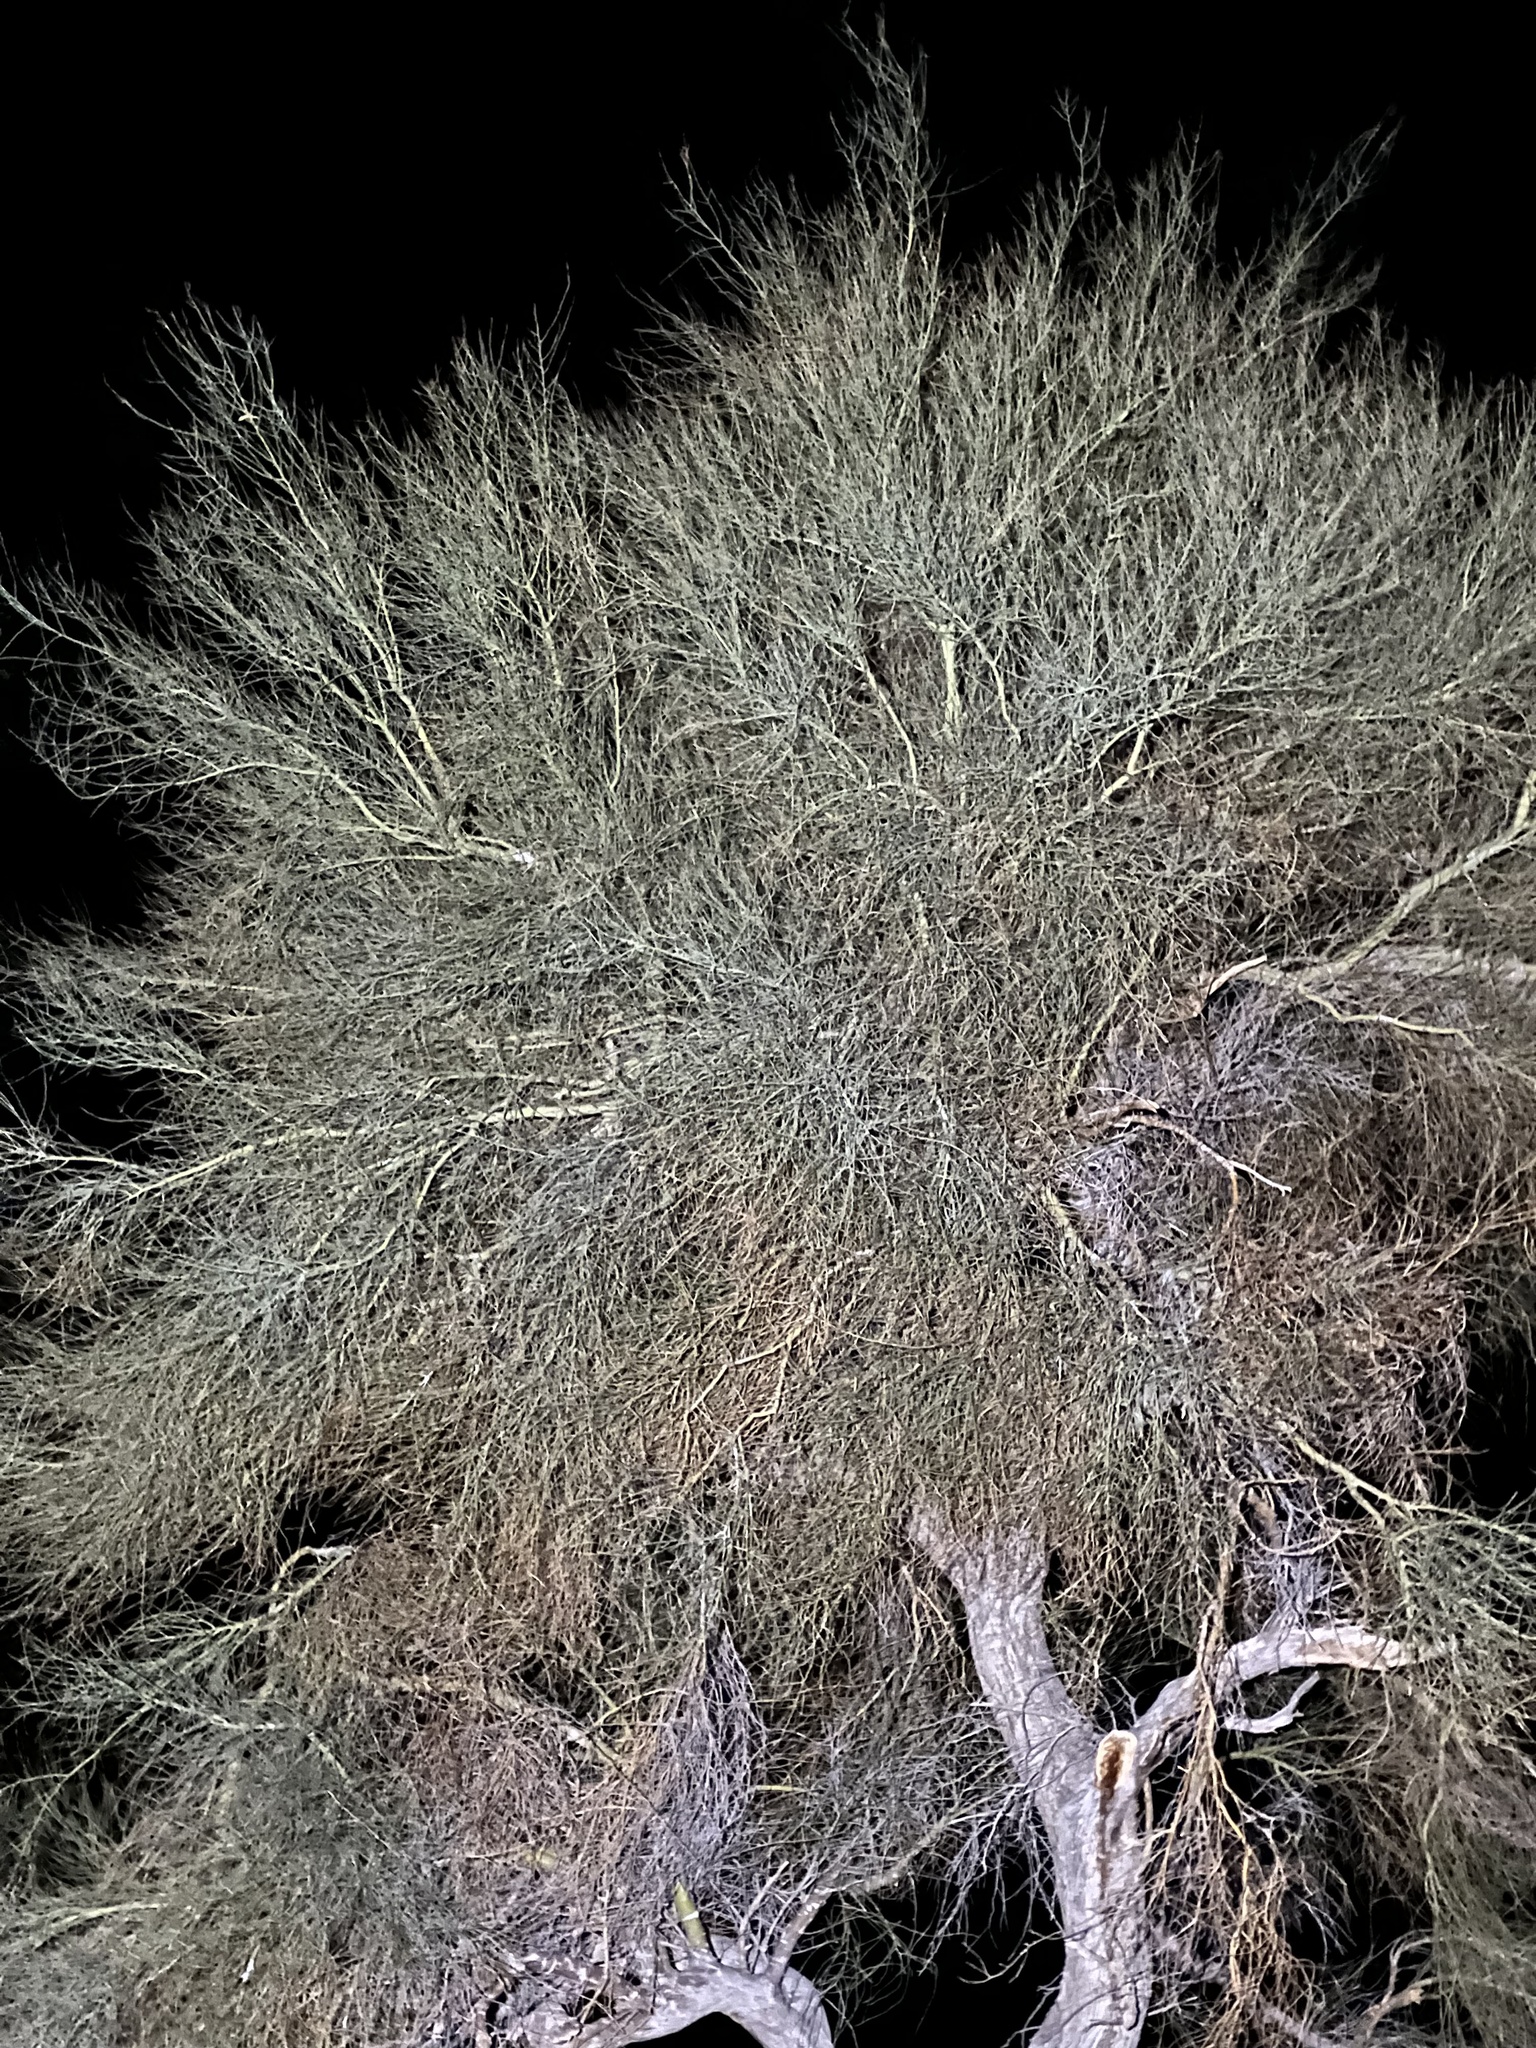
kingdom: Plantae
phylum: Tracheophyta
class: Magnoliopsida
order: Fabales
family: Fabaceae
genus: Parkinsonia
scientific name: Parkinsonia florida
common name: Blue paloverde
